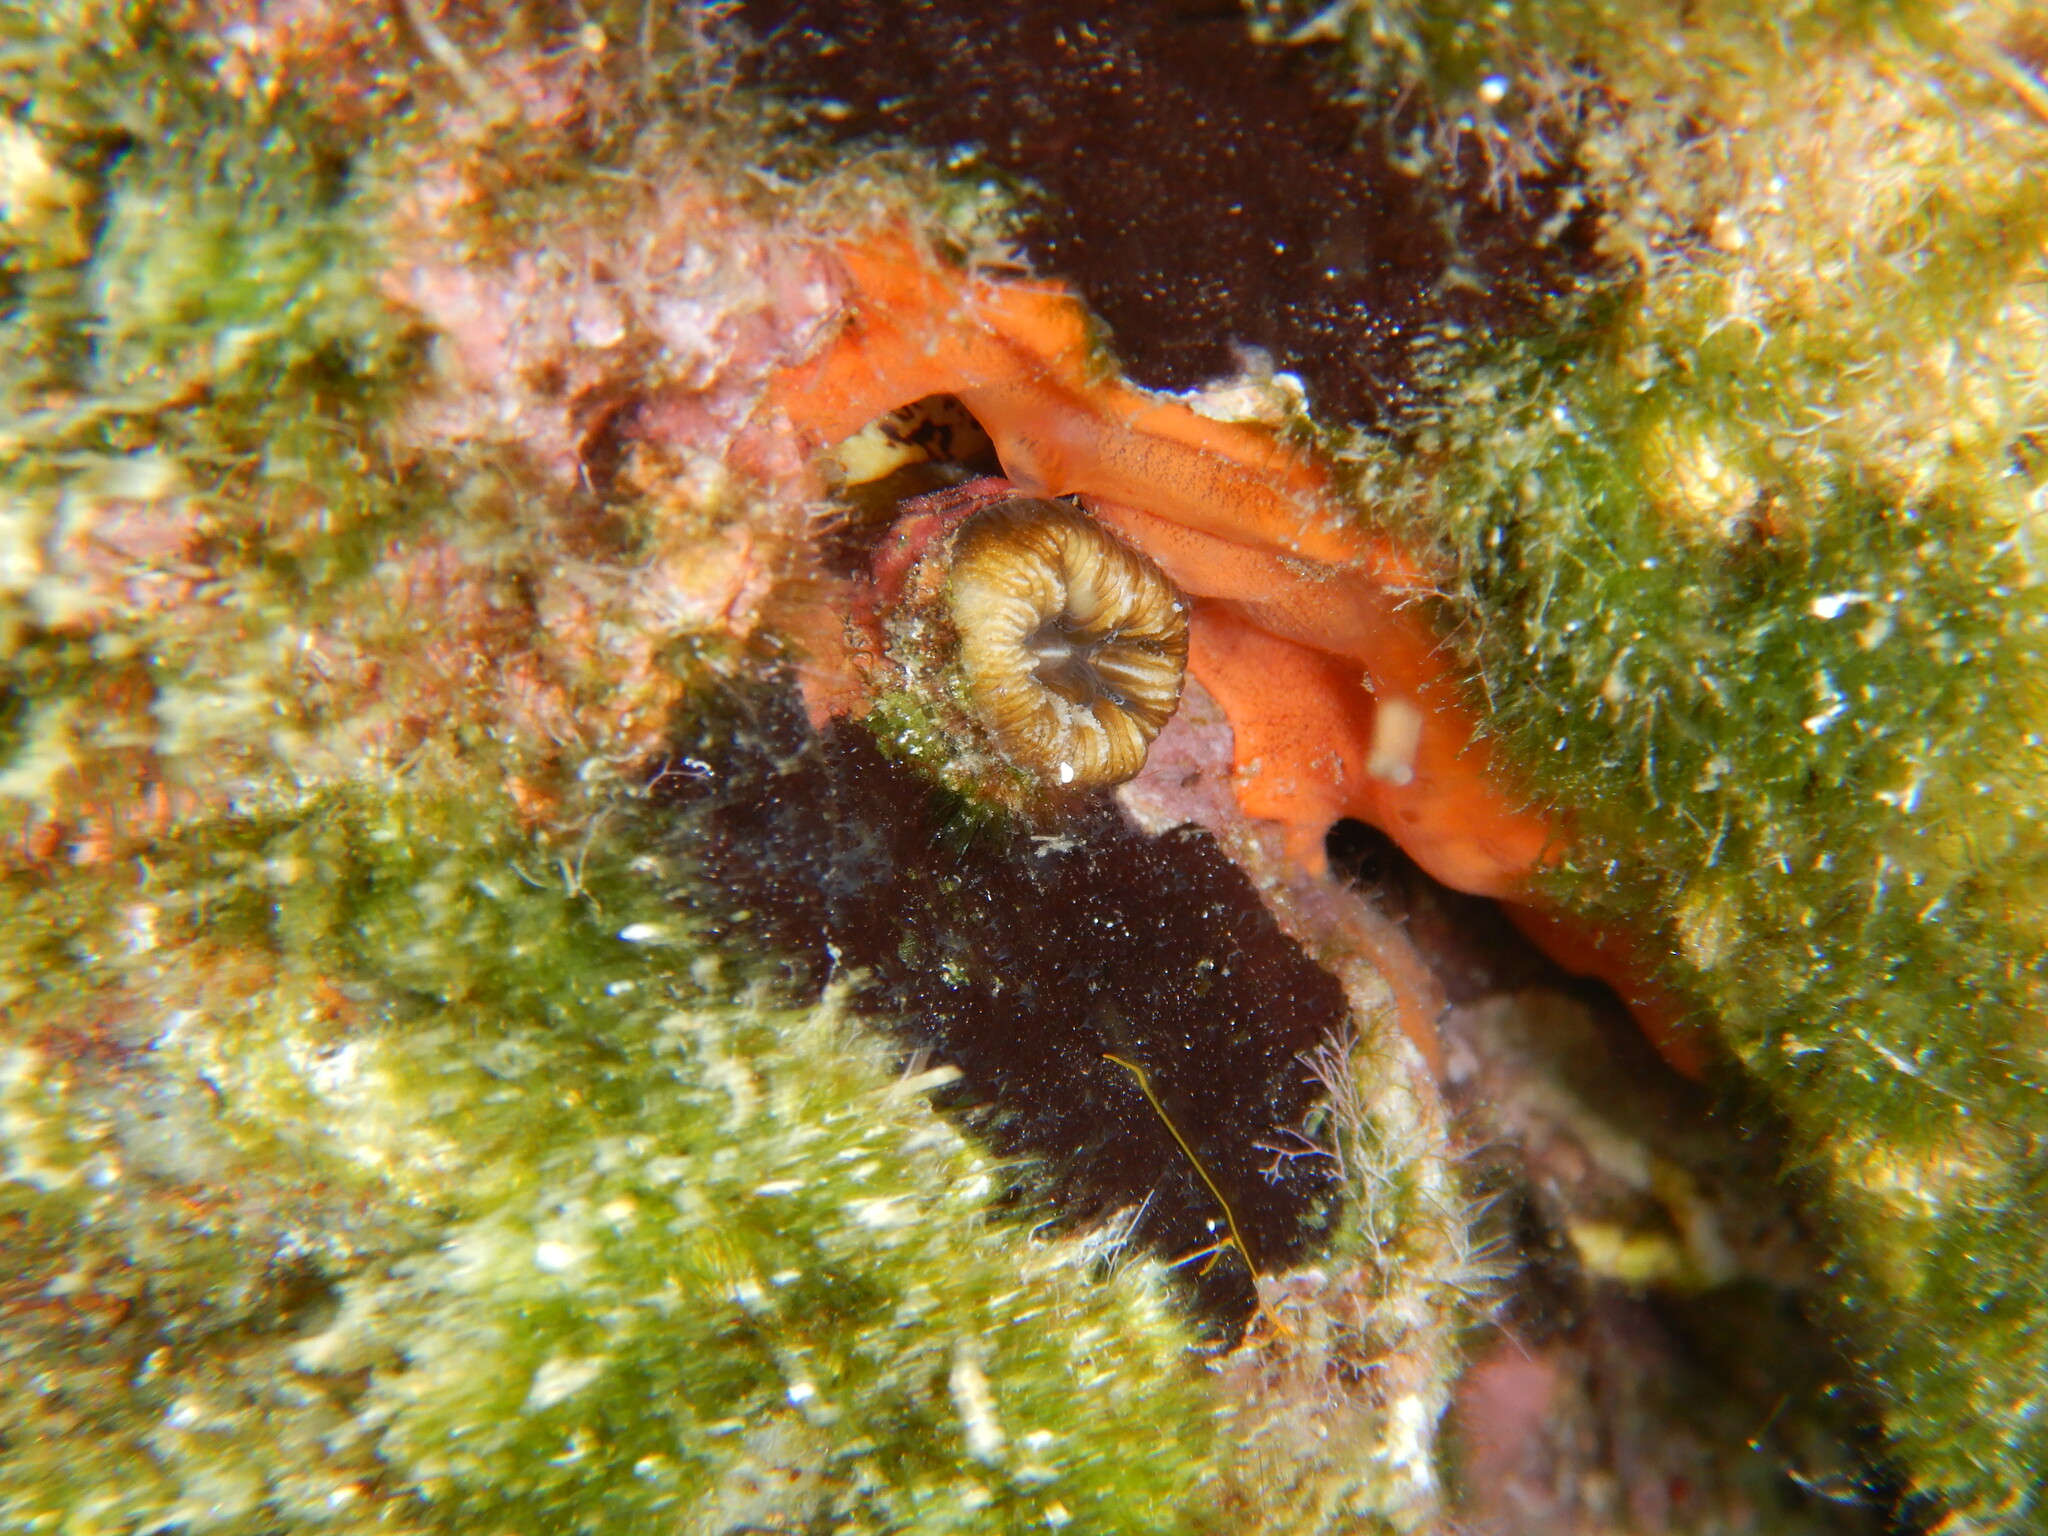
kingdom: Animalia
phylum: Cnidaria
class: Anthozoa
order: Scleractinia
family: Dendrophylliidae
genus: Balanophyllia
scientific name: Balanophyllia europaea
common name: Scarlet coral
